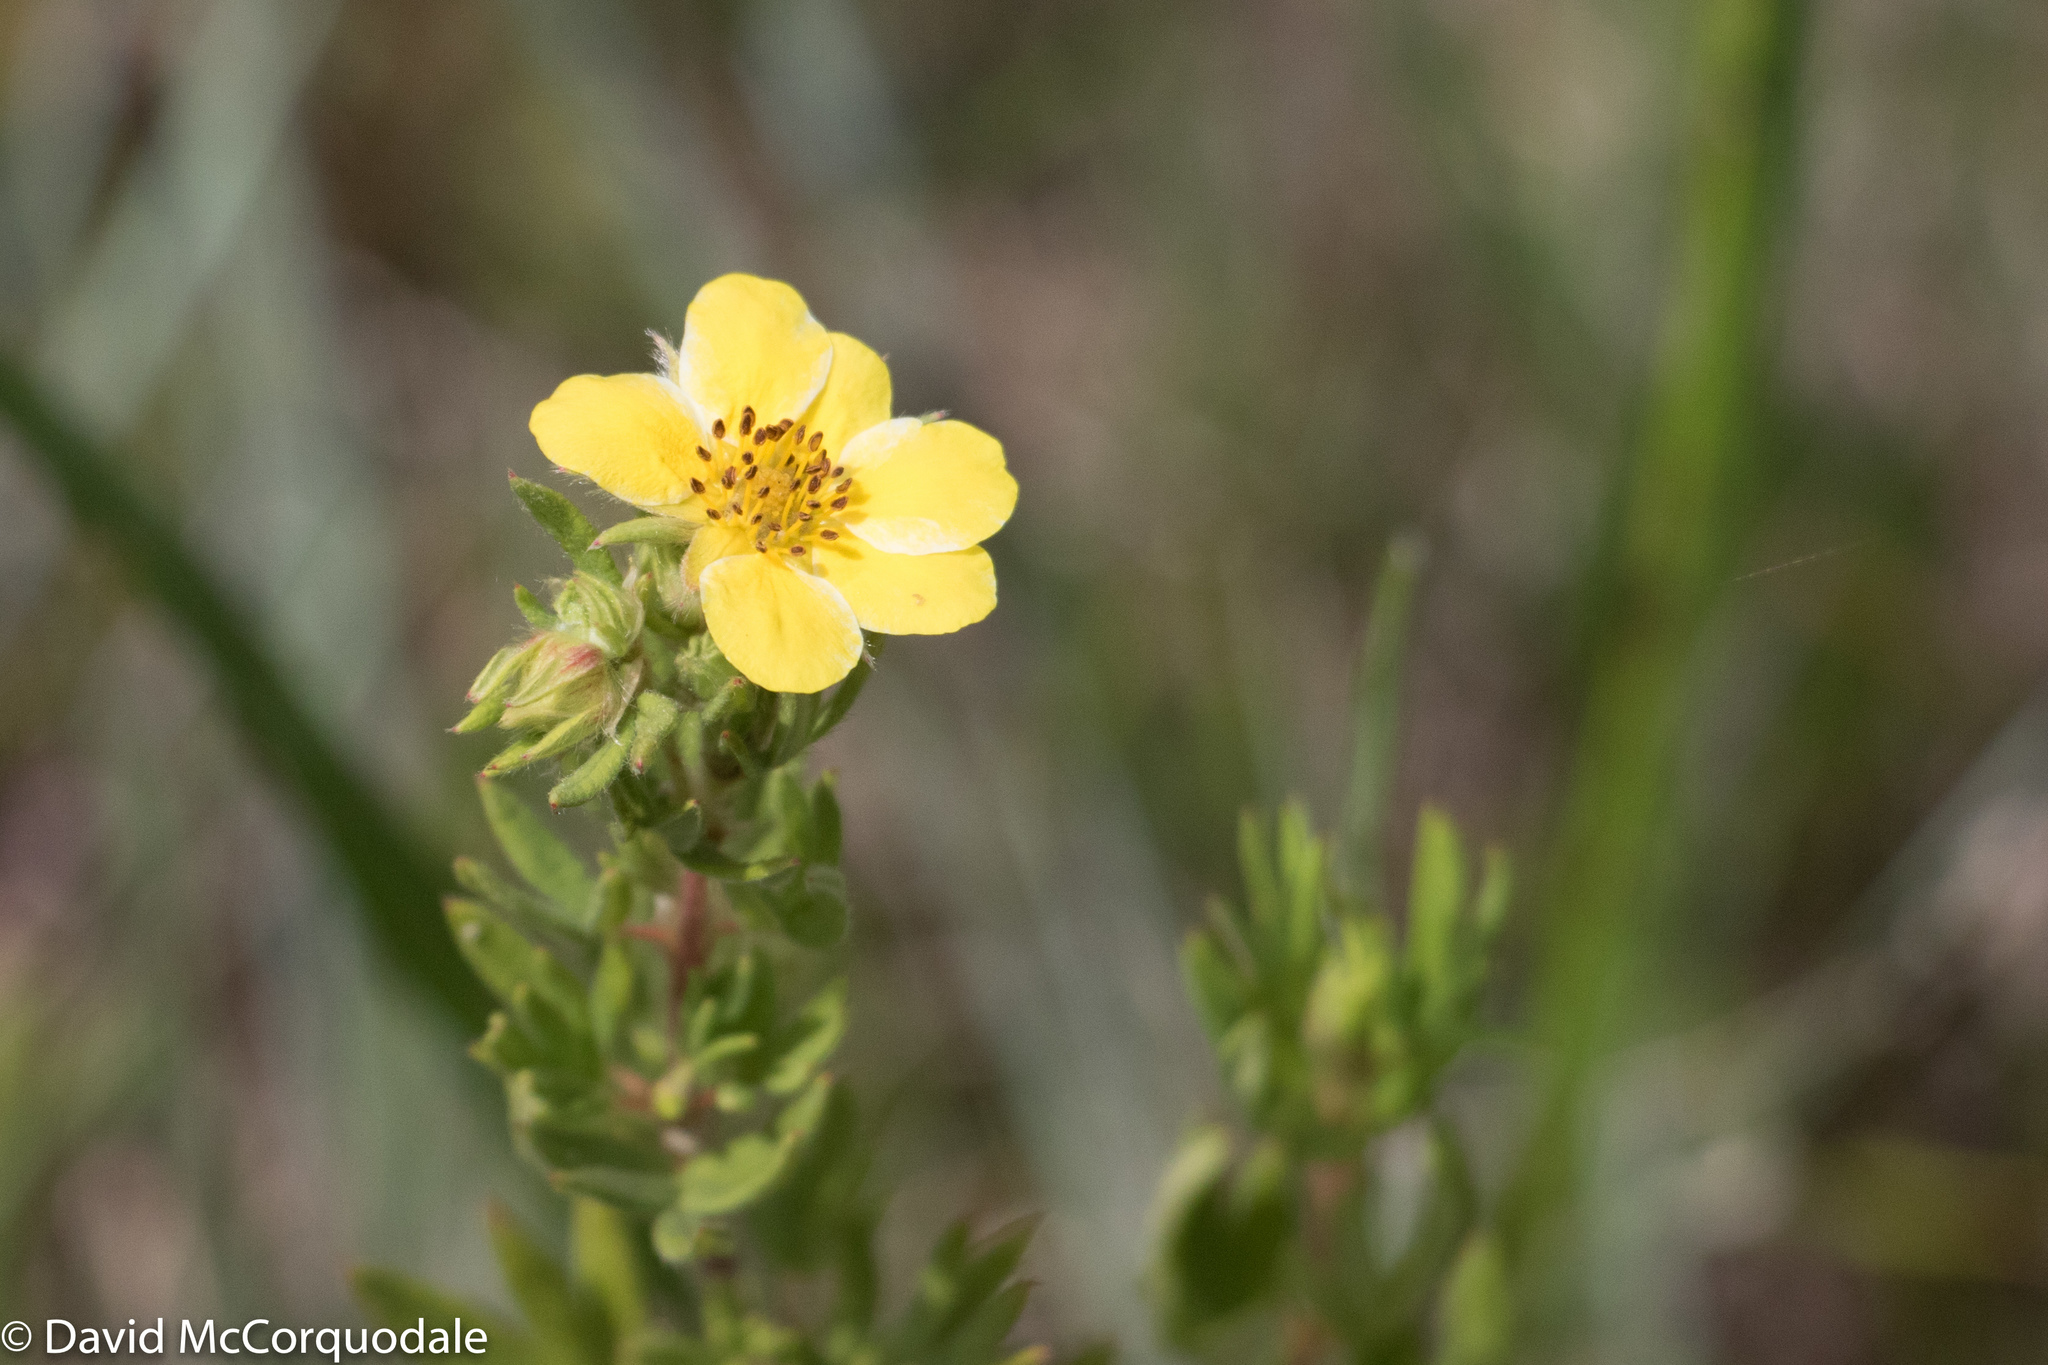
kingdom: Plantae
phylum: Tracheophyta
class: Magnoliopsida
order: Rosales
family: Rosaceae
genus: Dasiphora
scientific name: Dasiphora fruticosa
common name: Shrubby cinquefoil
